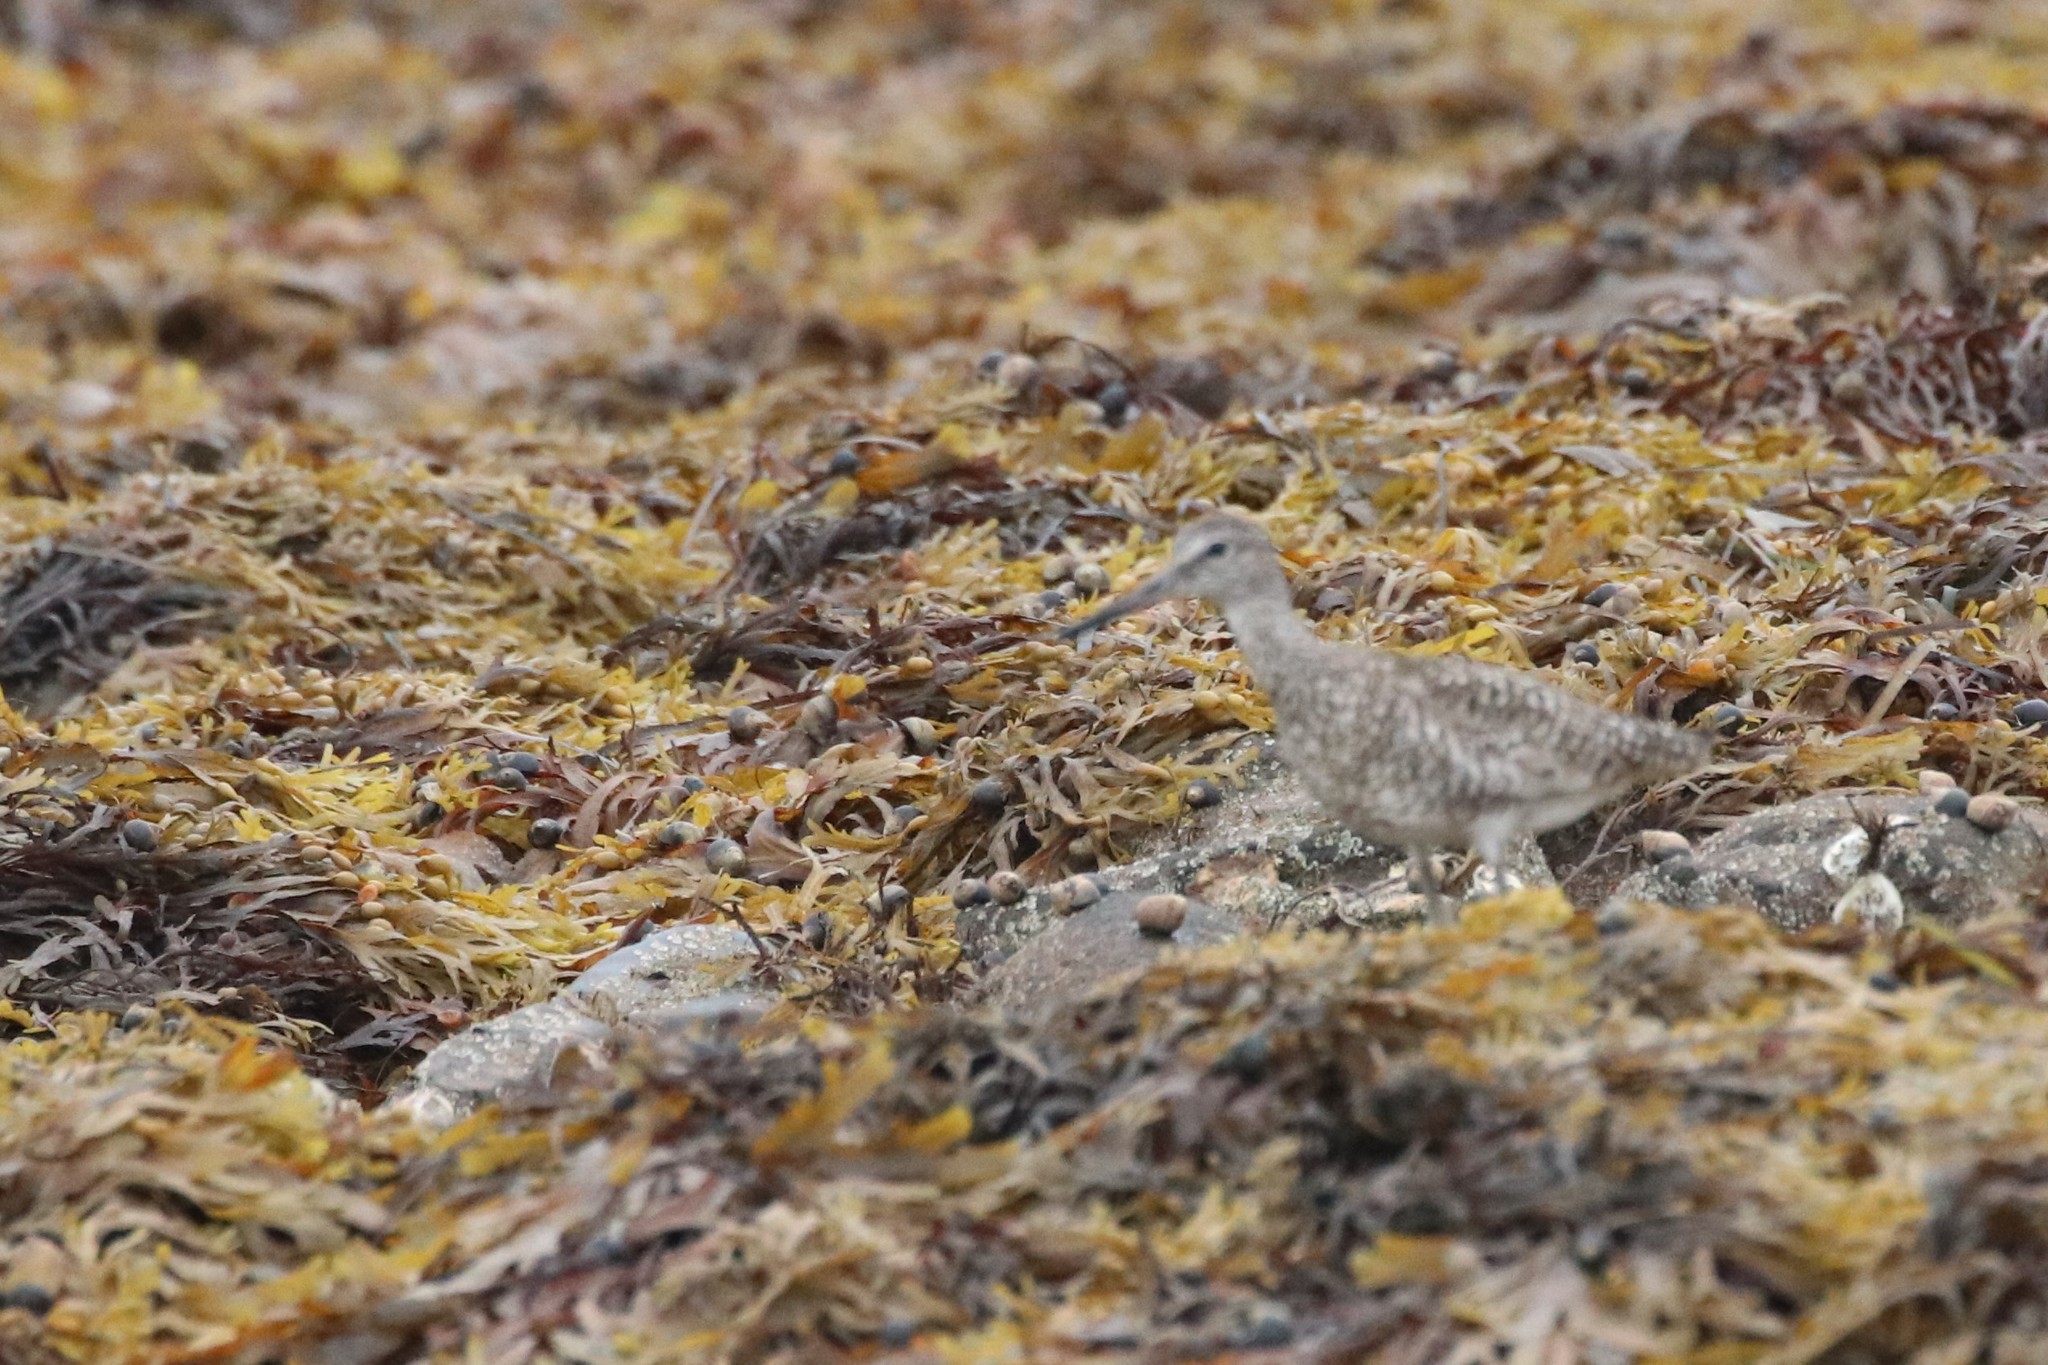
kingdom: Animalia
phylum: Chordata
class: Aves
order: Charadriiformes
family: Scolopacidae
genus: Tringa
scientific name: Tringa semipalmata
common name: Willet
